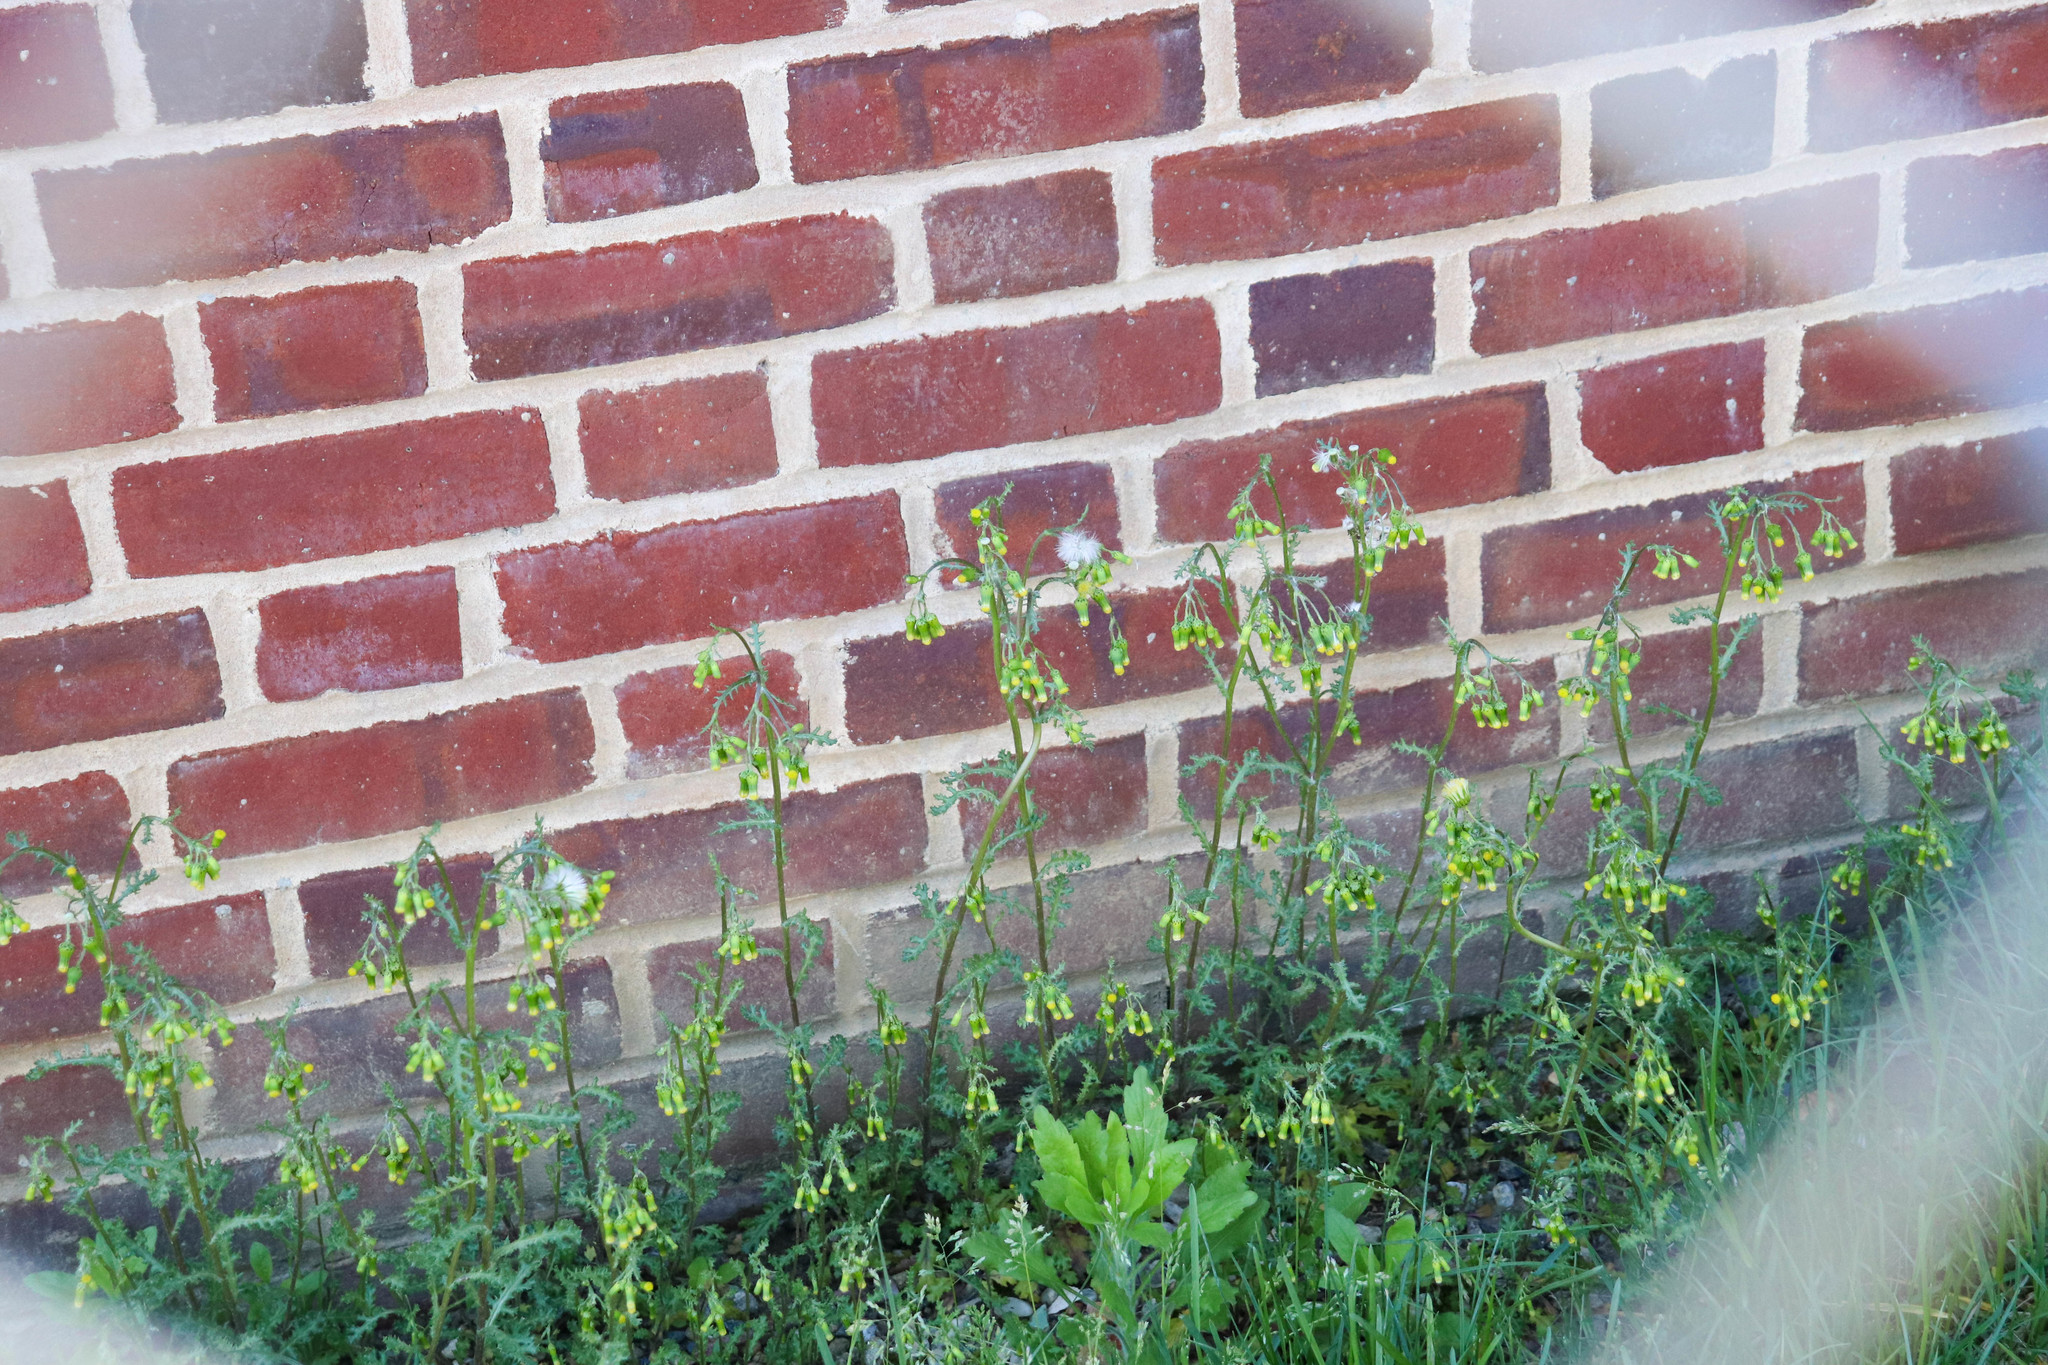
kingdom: Plantae
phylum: Tracheophyta
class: Magnoliopsida
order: Asterales
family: Asteraceae
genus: Senecio
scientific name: Senecio vulgaris
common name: Old-man-in-the-spring
